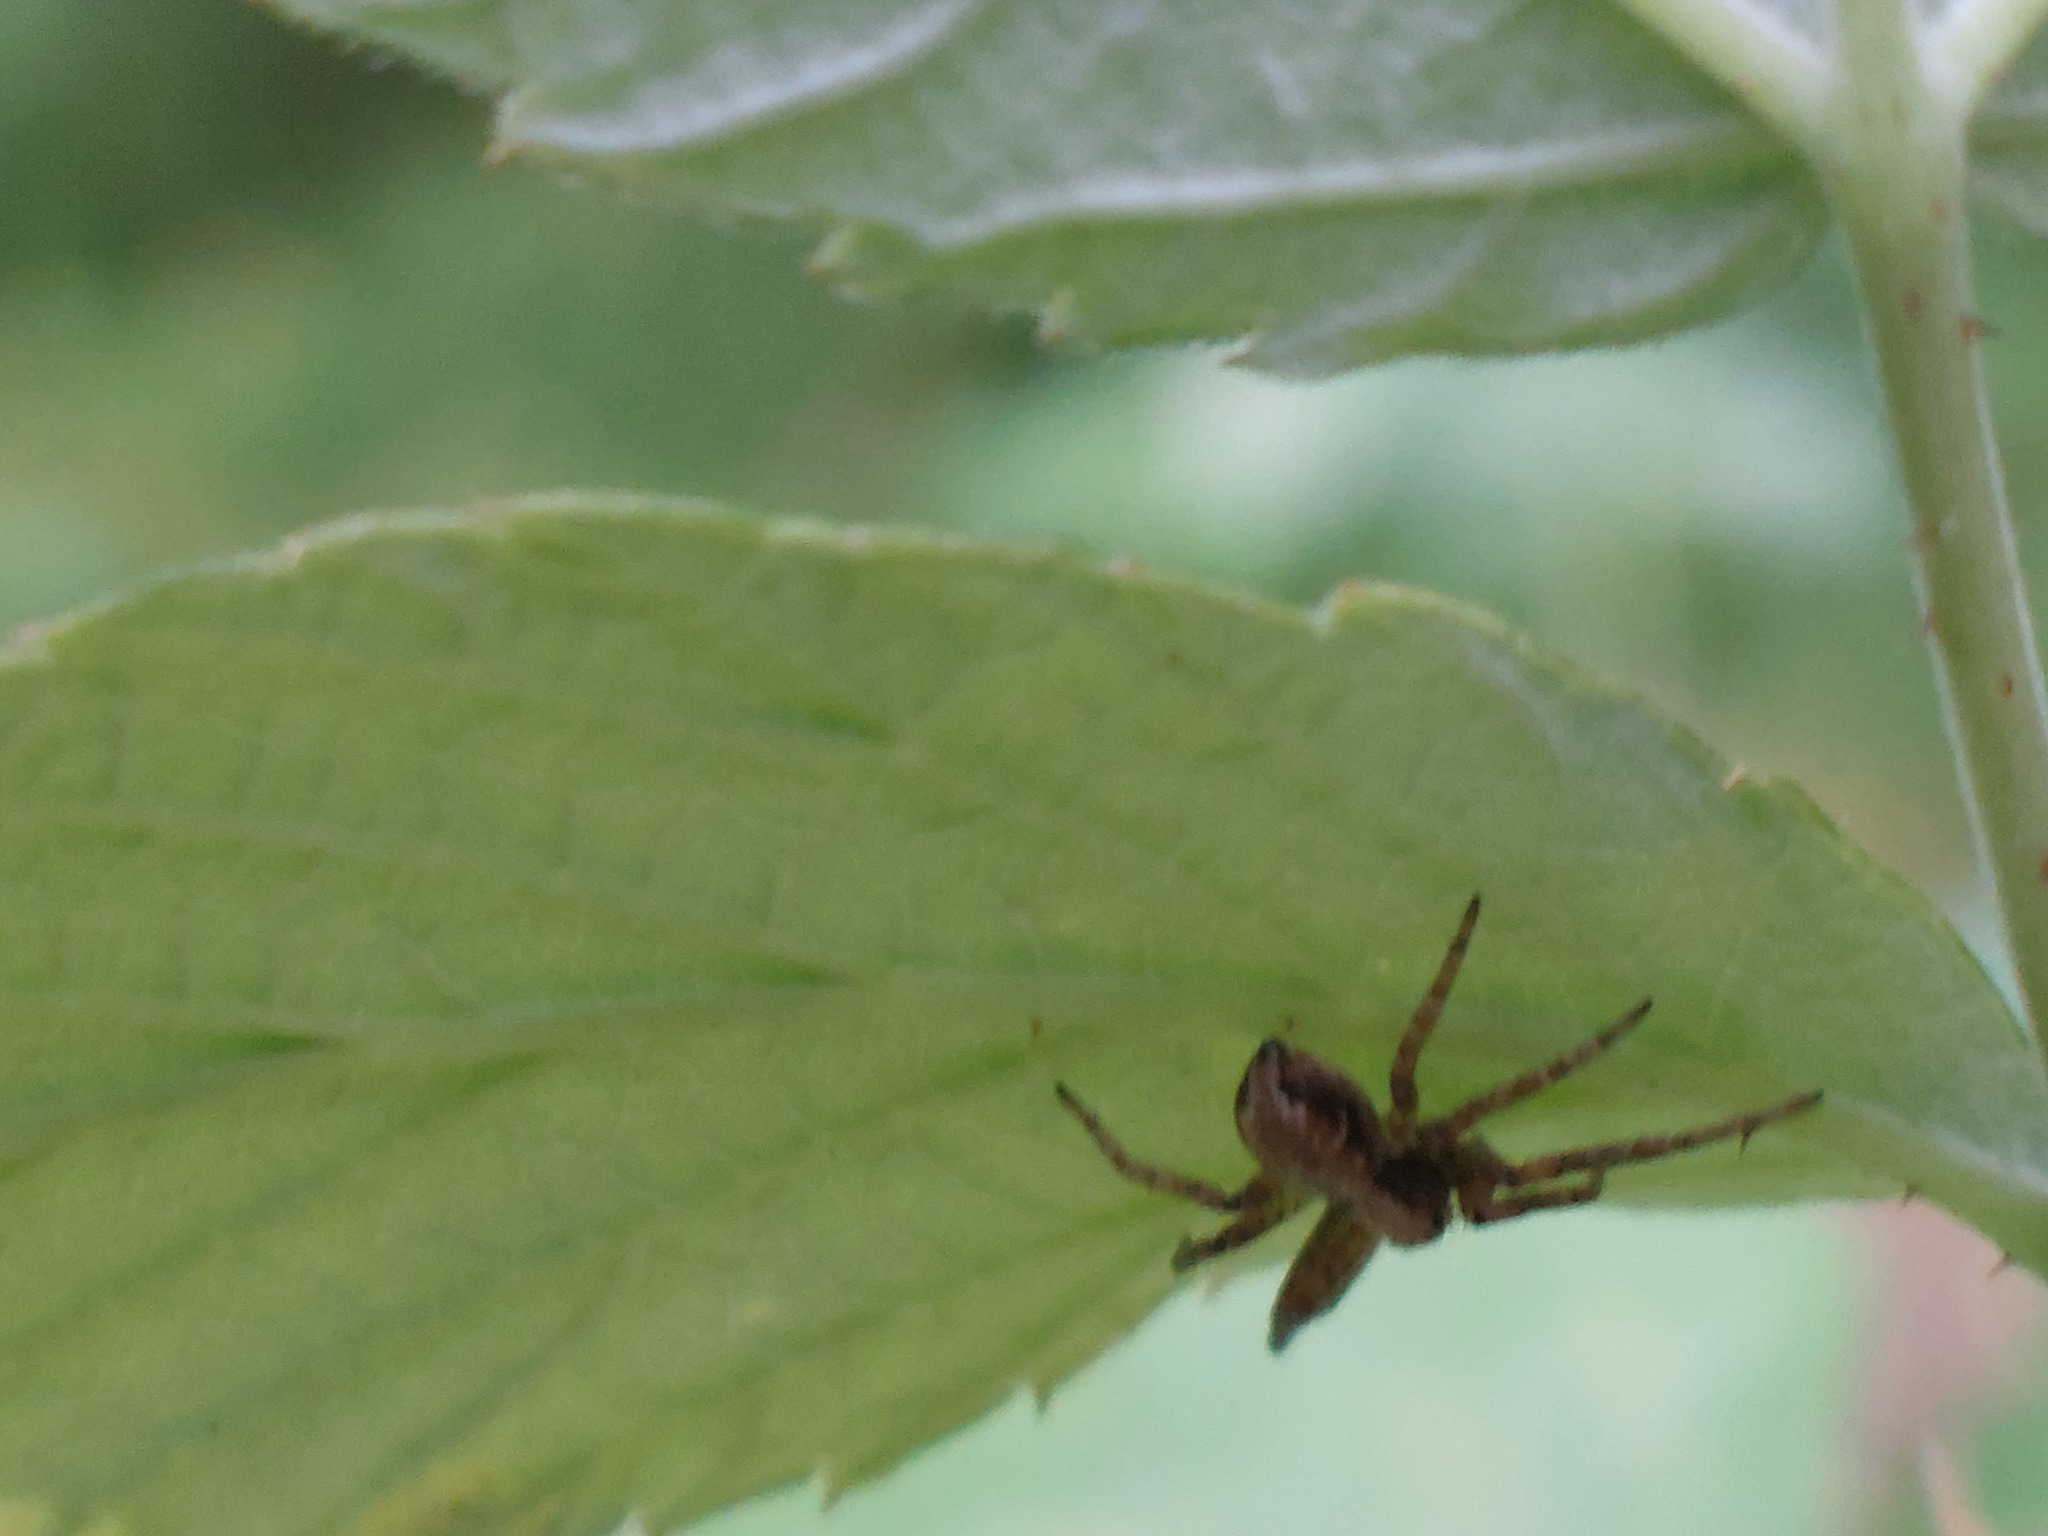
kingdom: Animalia
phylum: Arthropoda
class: Arachnida
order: Araneae
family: Philodromidae
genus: Philodromus
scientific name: Philodromus
